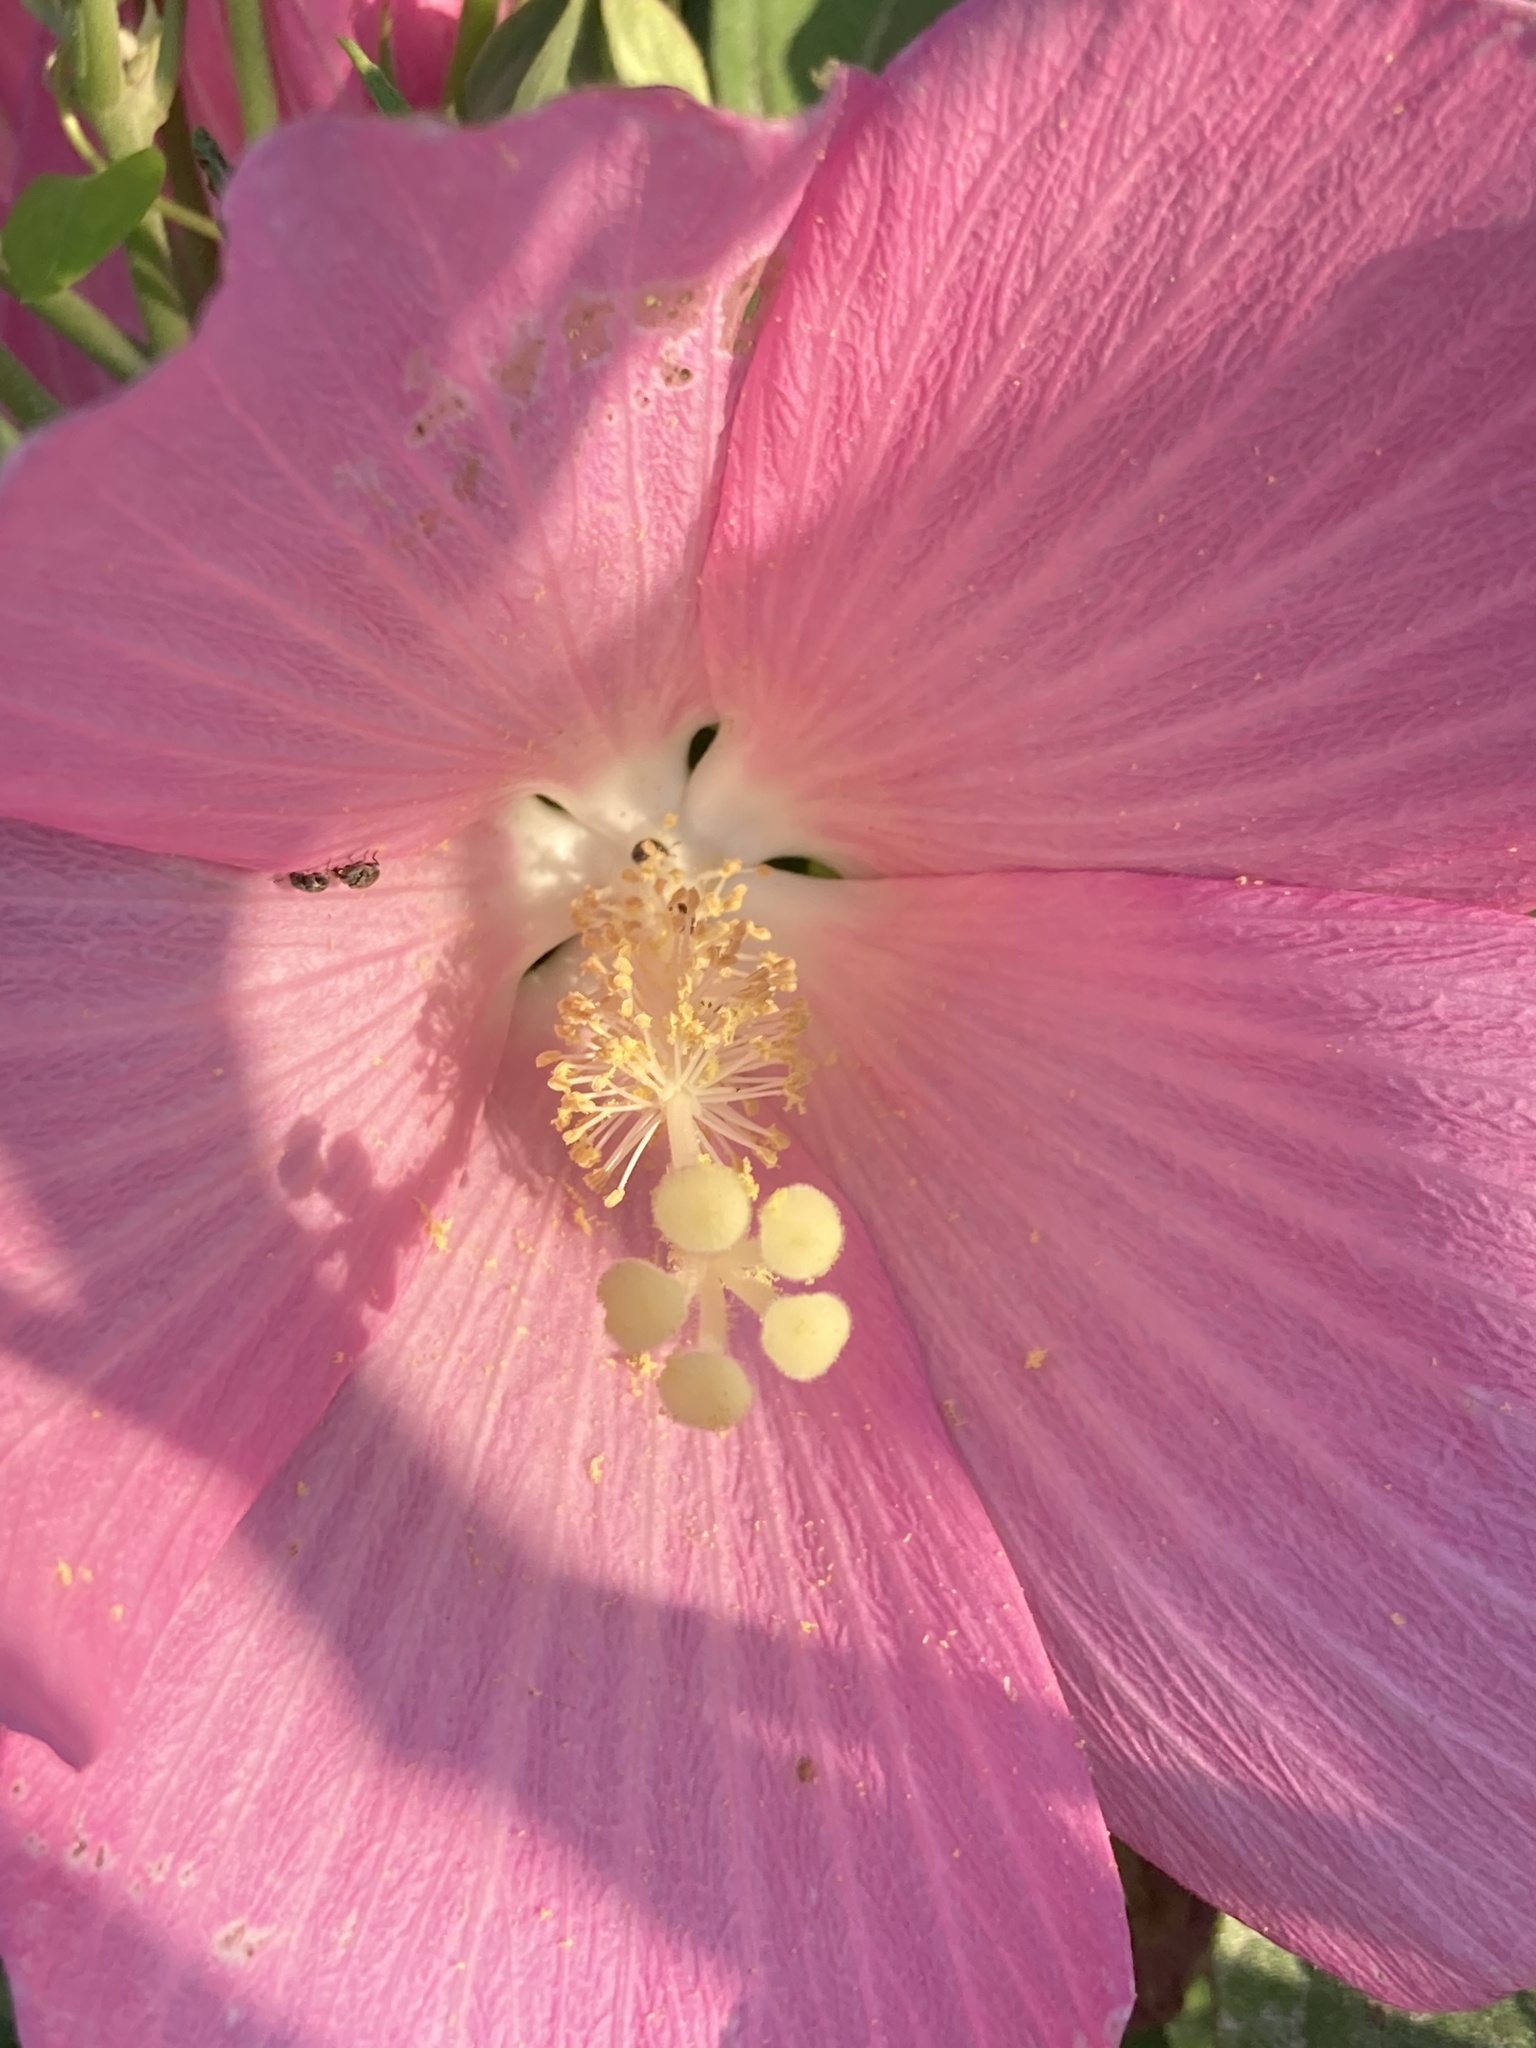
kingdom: Plantae
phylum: Tracheophyta
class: Magnoliopsida
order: Malvales
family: Malvaceae
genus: Hibiscus
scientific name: Hibiscus moscheutos
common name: Common rose-mallow
